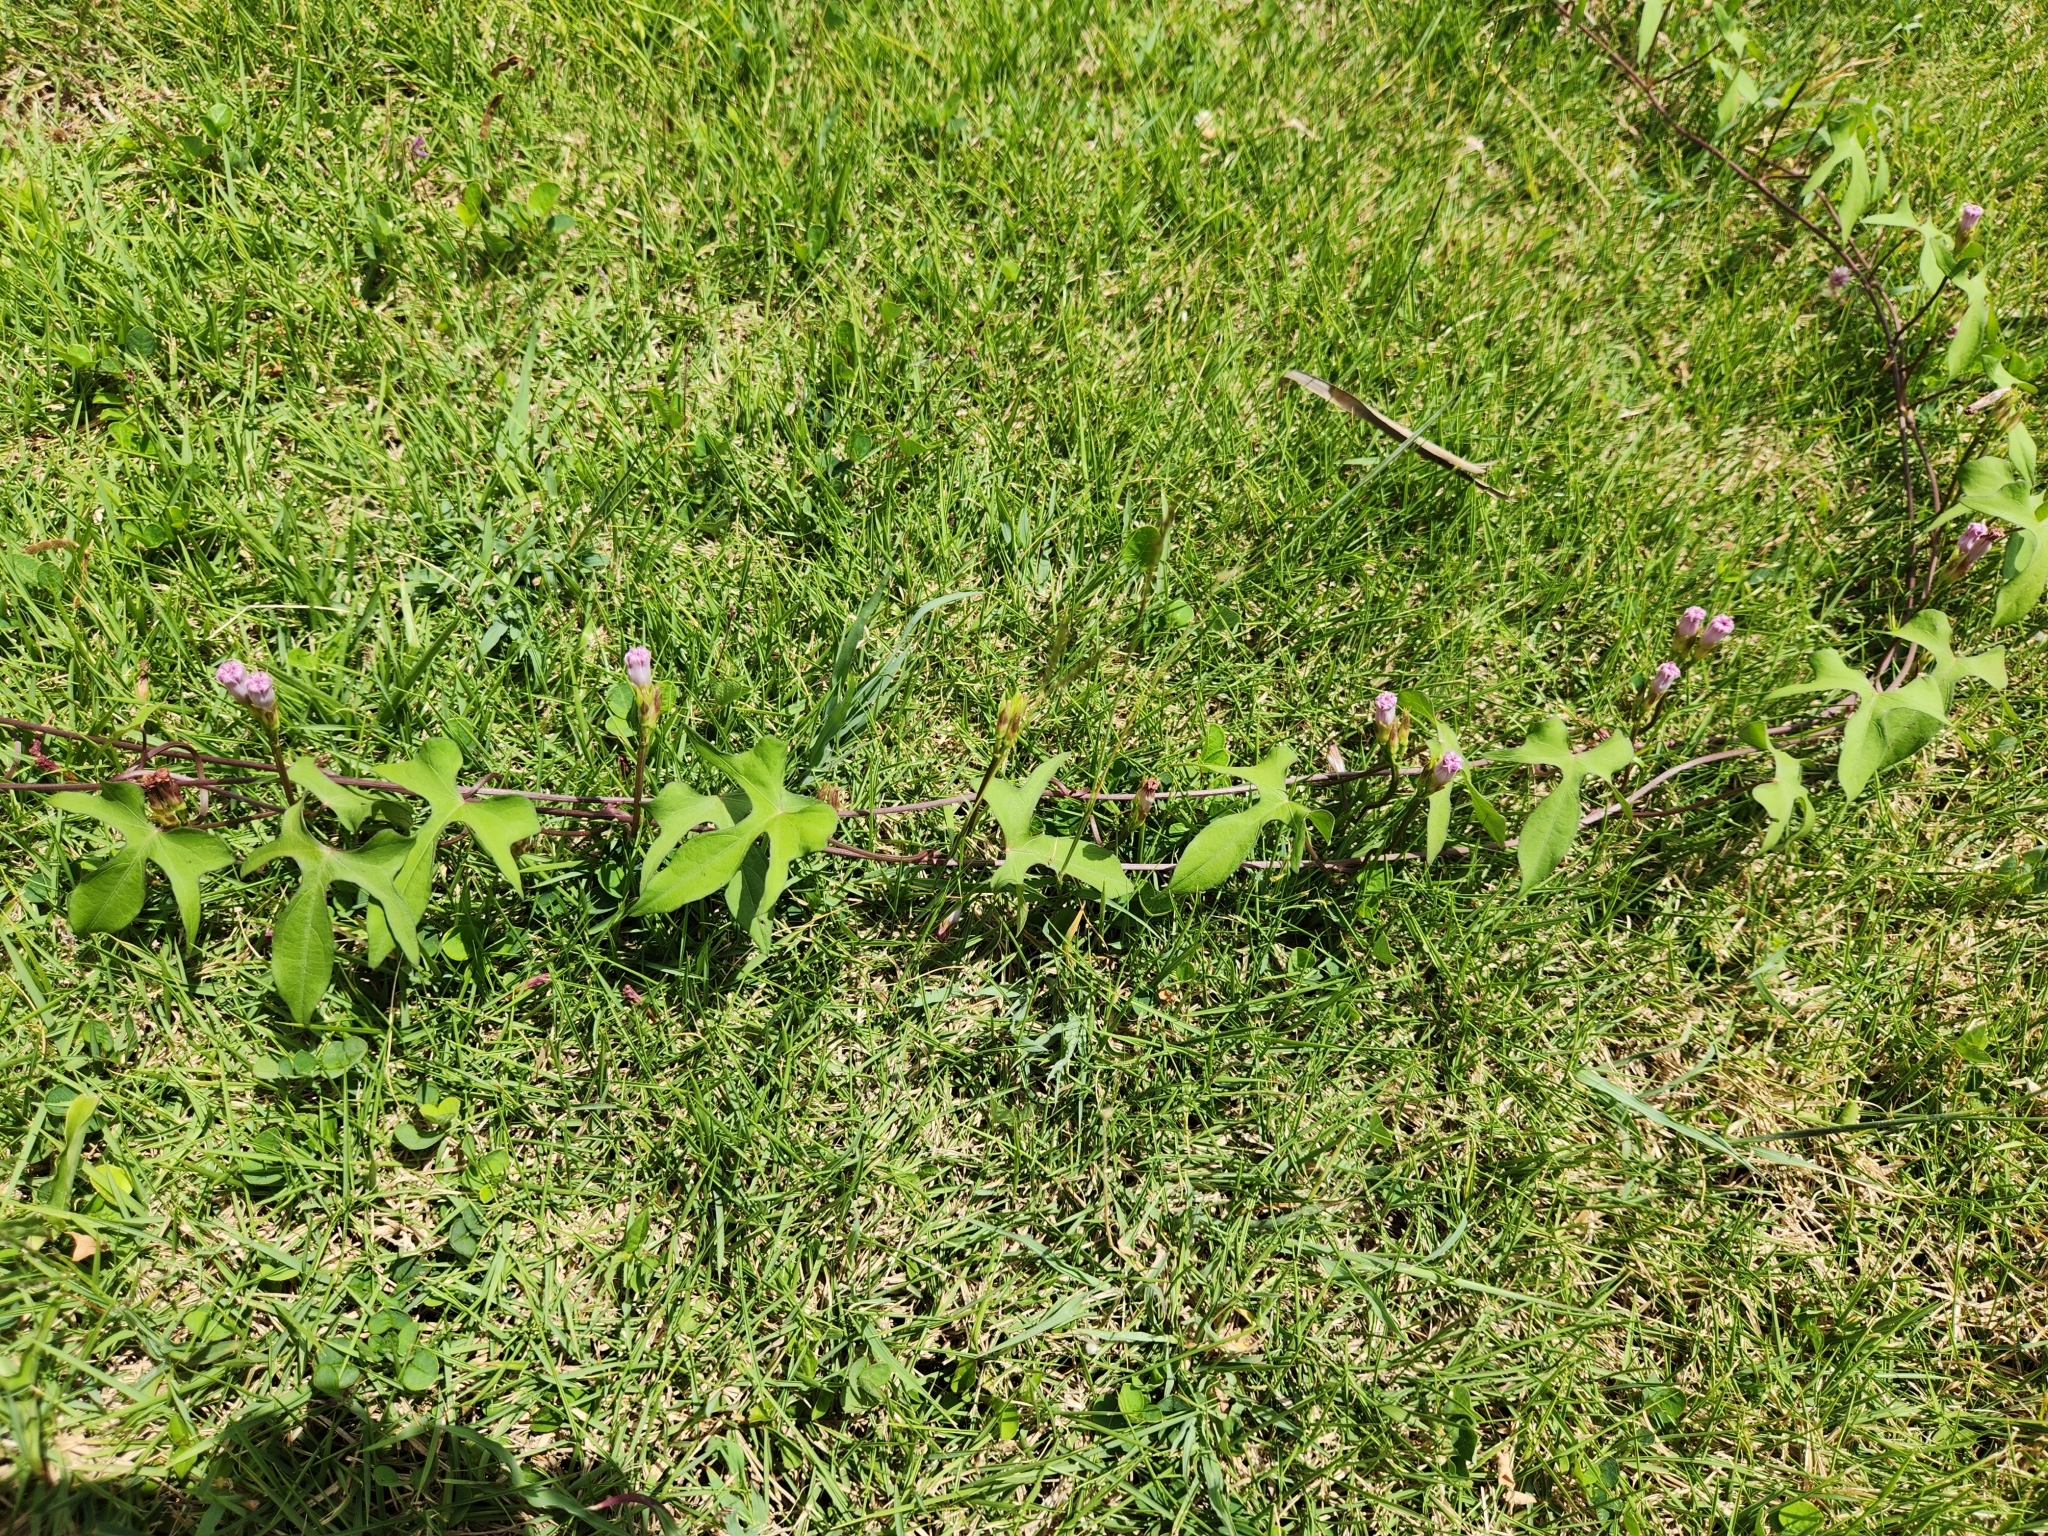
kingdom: Plantae
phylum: Tracheophyta
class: Magnoliopsida
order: Solanales
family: Convolvulaceae
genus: Ipomoea
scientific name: Ipomoea triloba
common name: Little-bell
